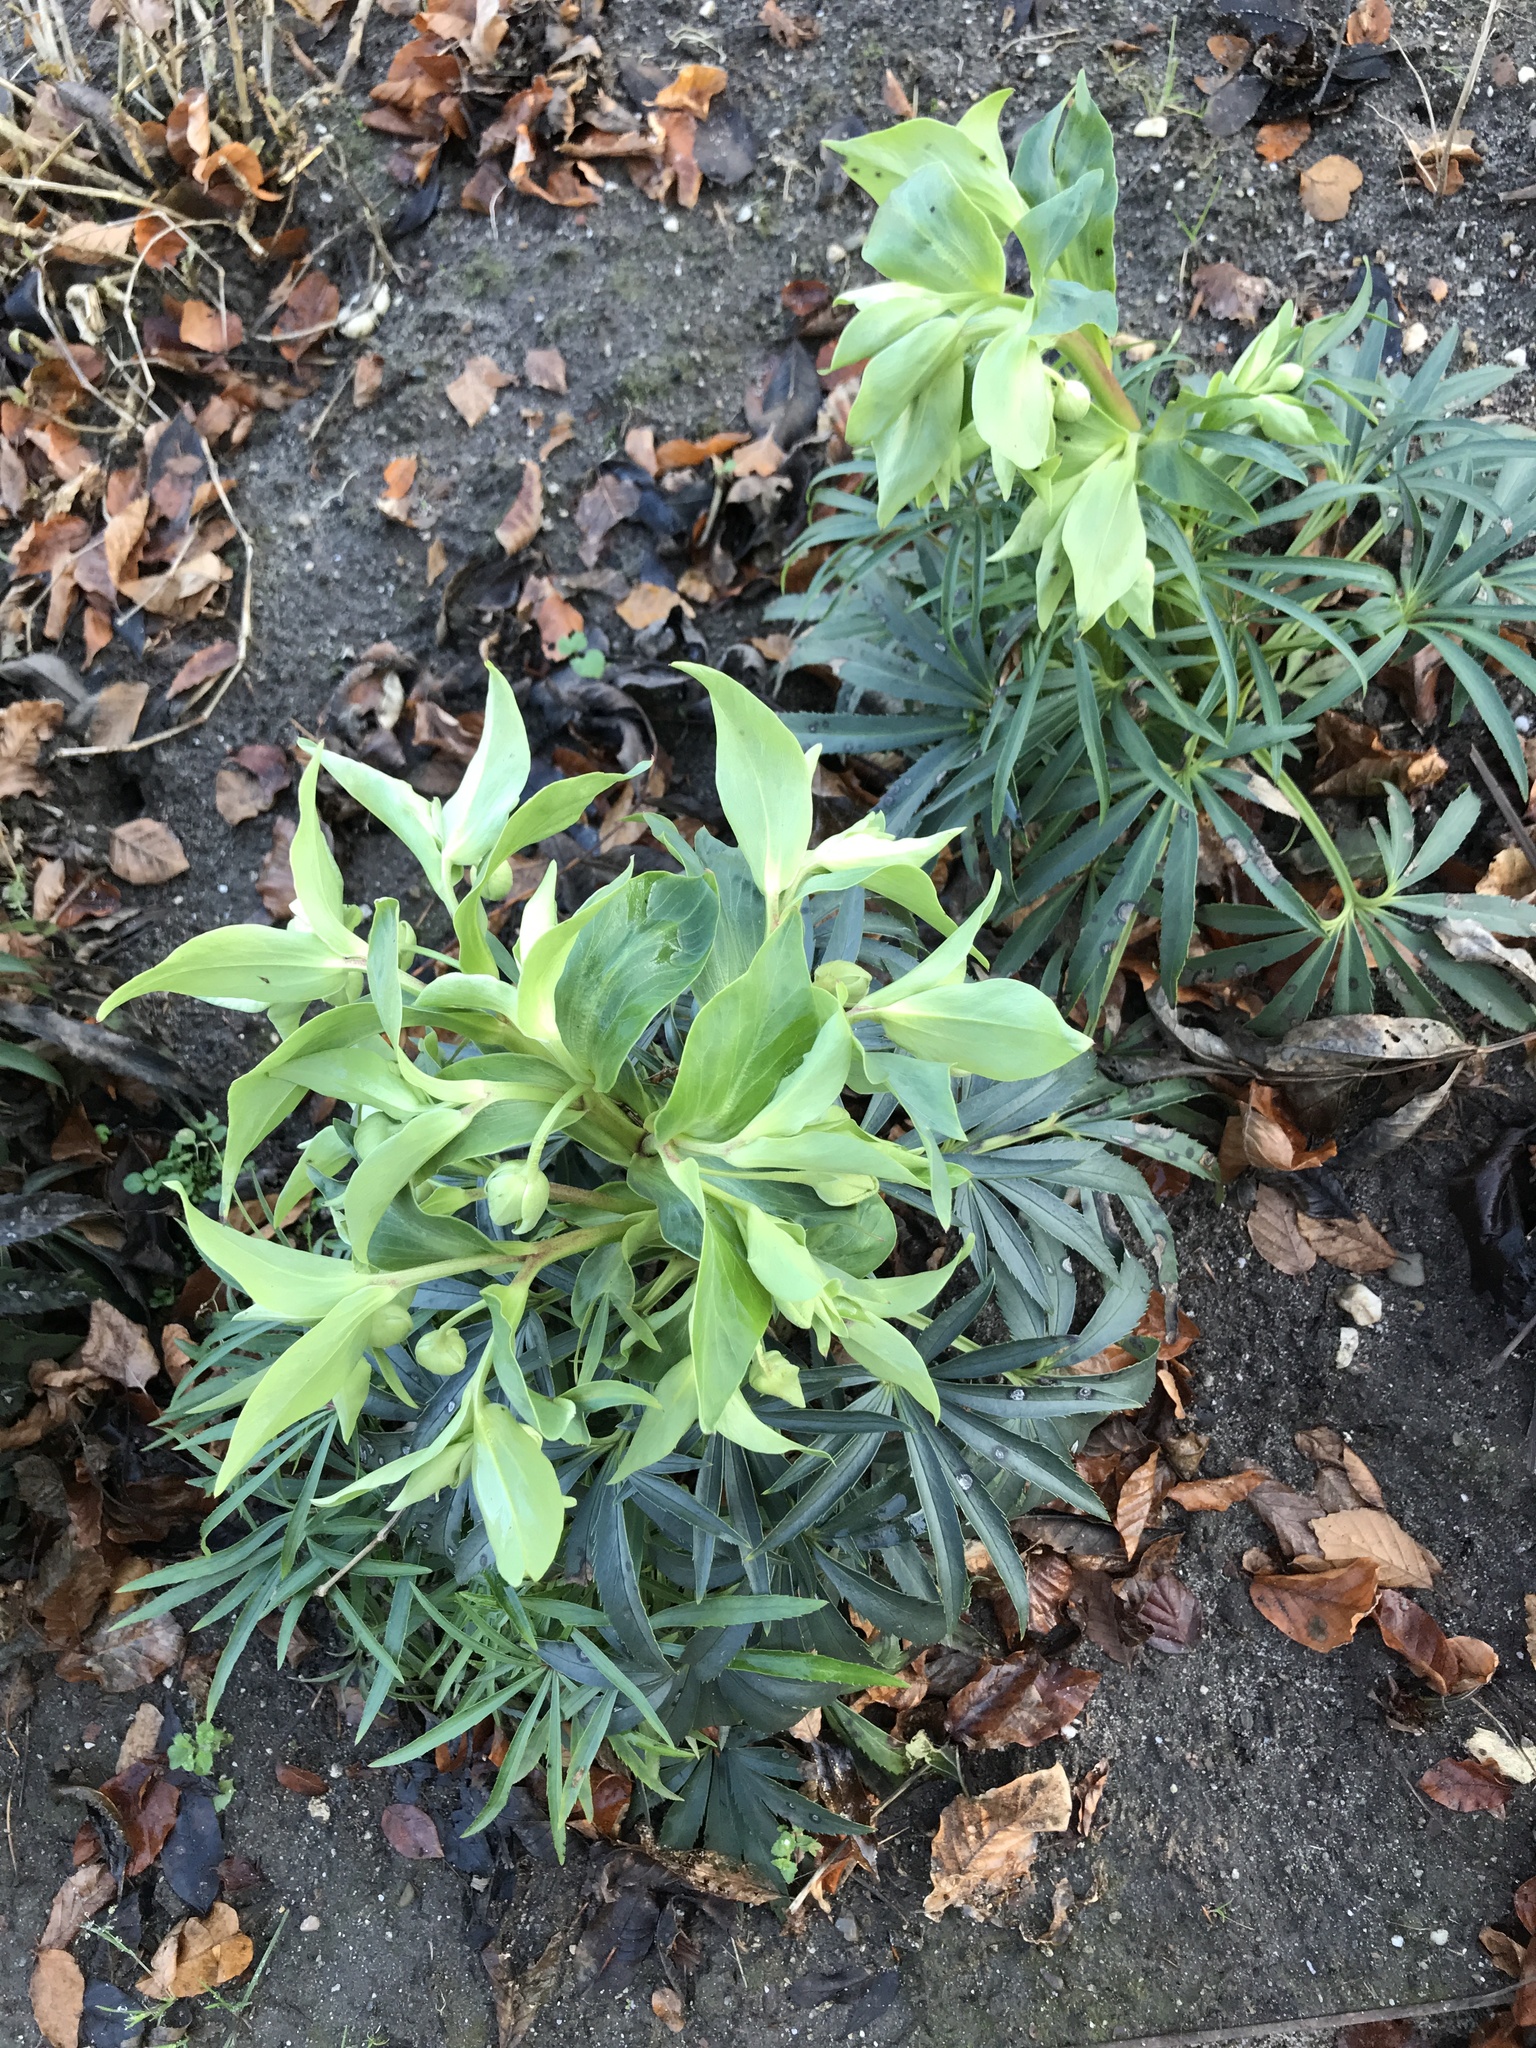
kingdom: Plantae
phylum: Tracheophyta
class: Magnoliopsida
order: Ranunculales
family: Ranunculaceae
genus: Helleborus
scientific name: Helleborus foetidus
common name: Stinking hellebore
